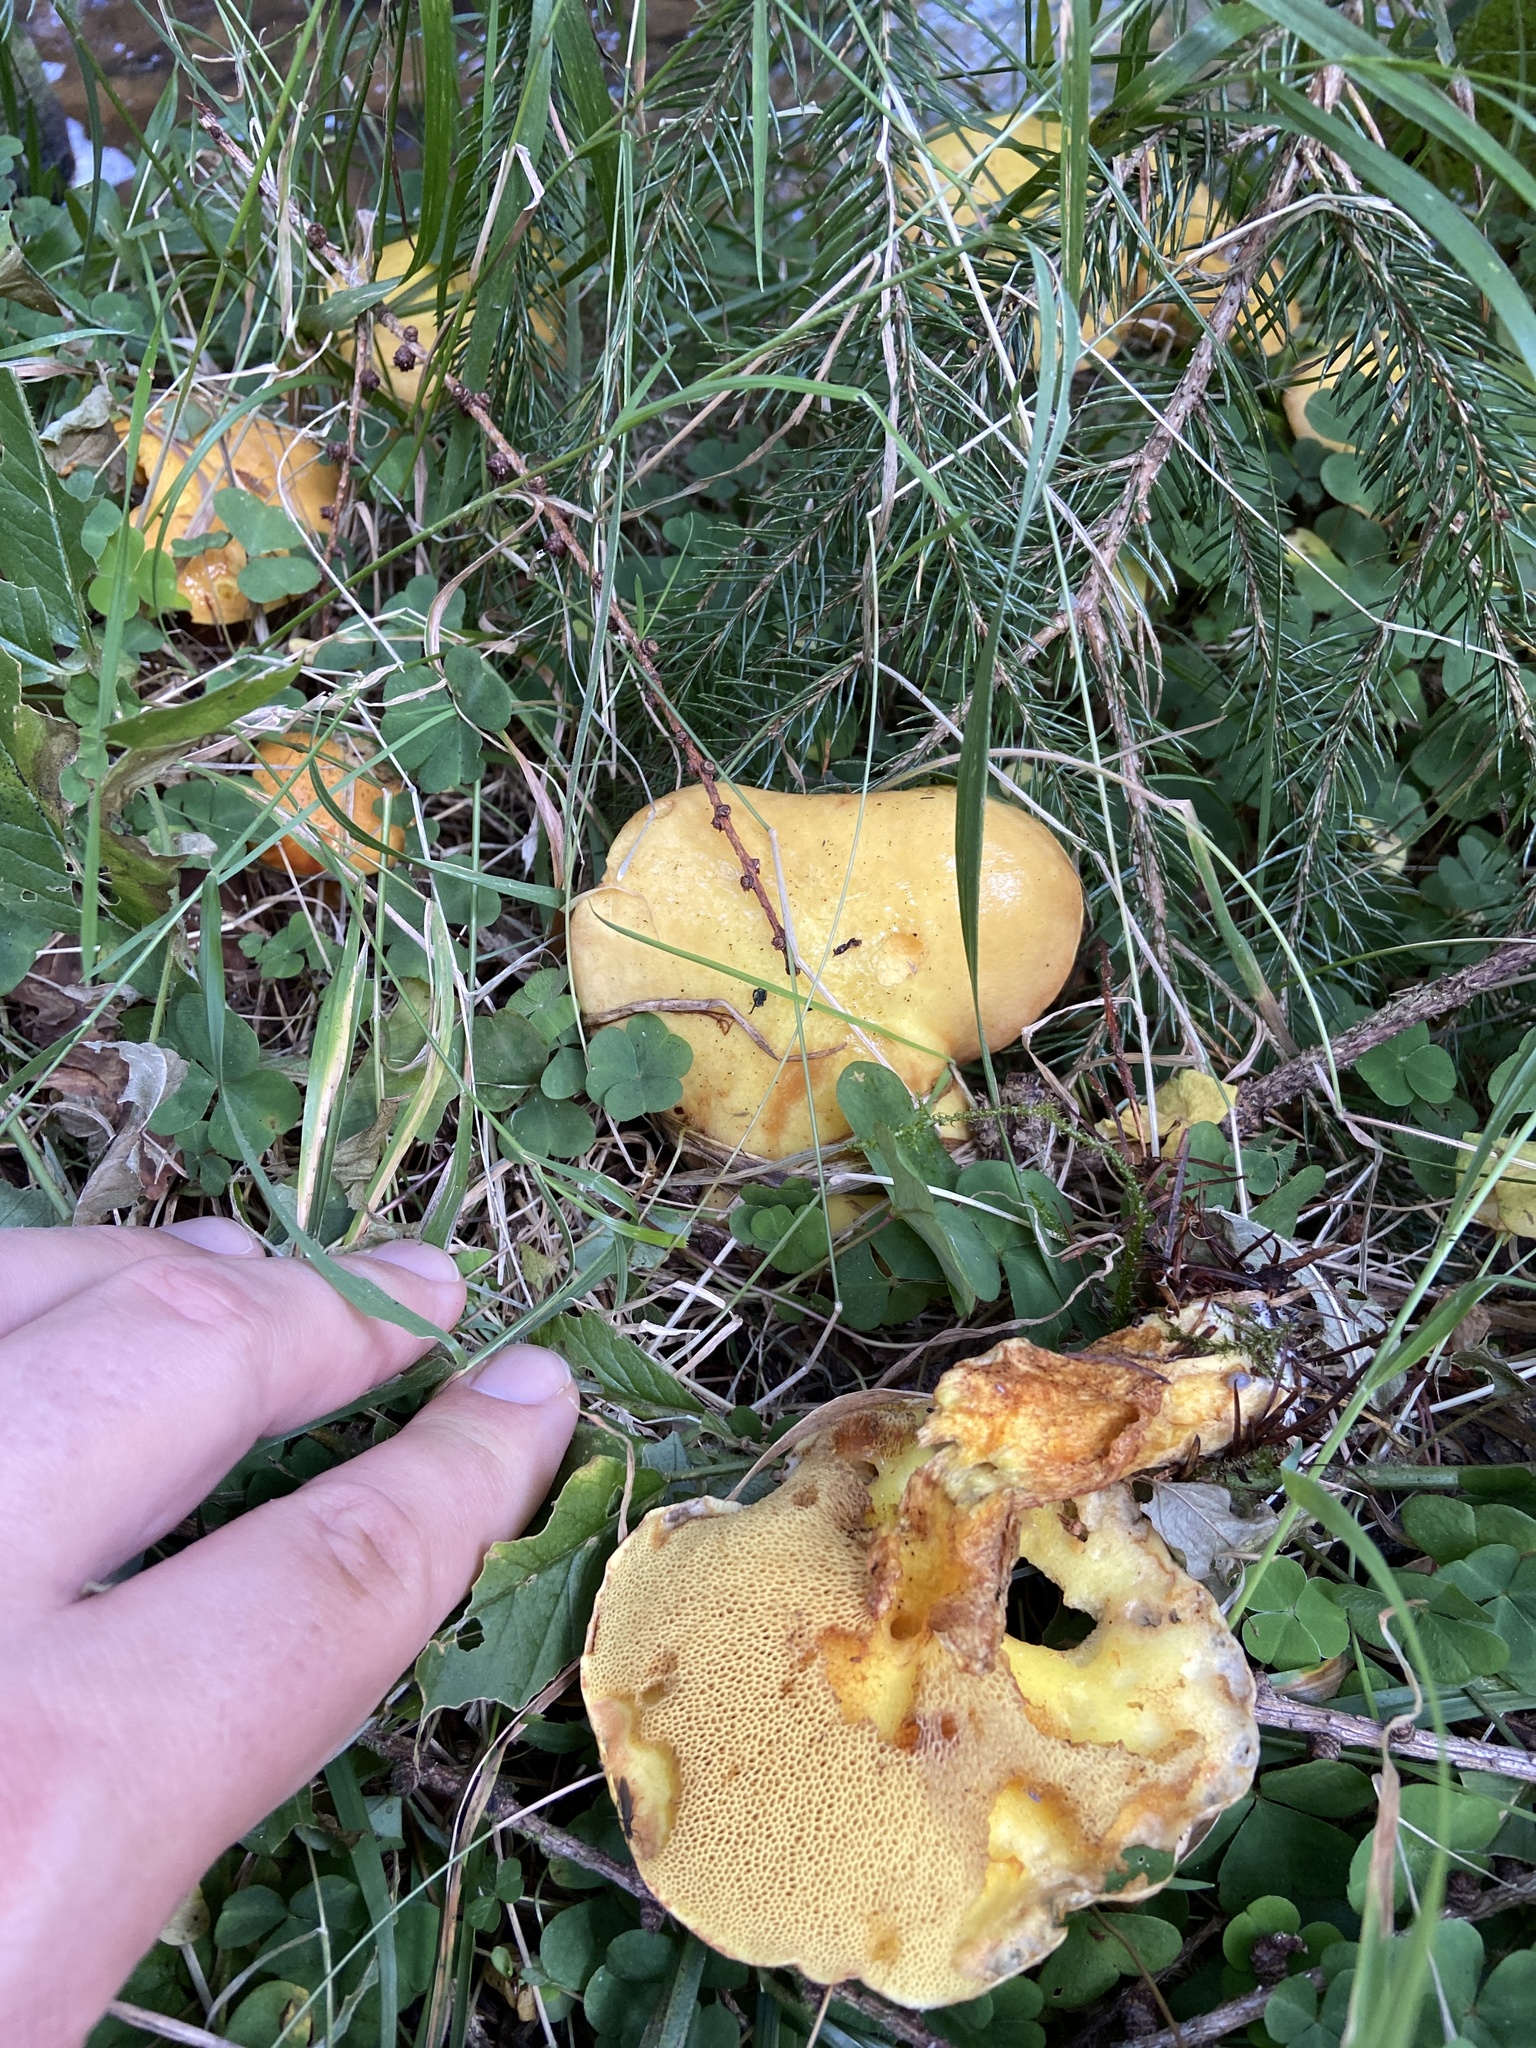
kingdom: Fungi
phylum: Basidiomycota
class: Agaricomycetes
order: Boletales
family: Suillaceae
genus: Suillus
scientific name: Suillus grevillei
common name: Larch bolete
